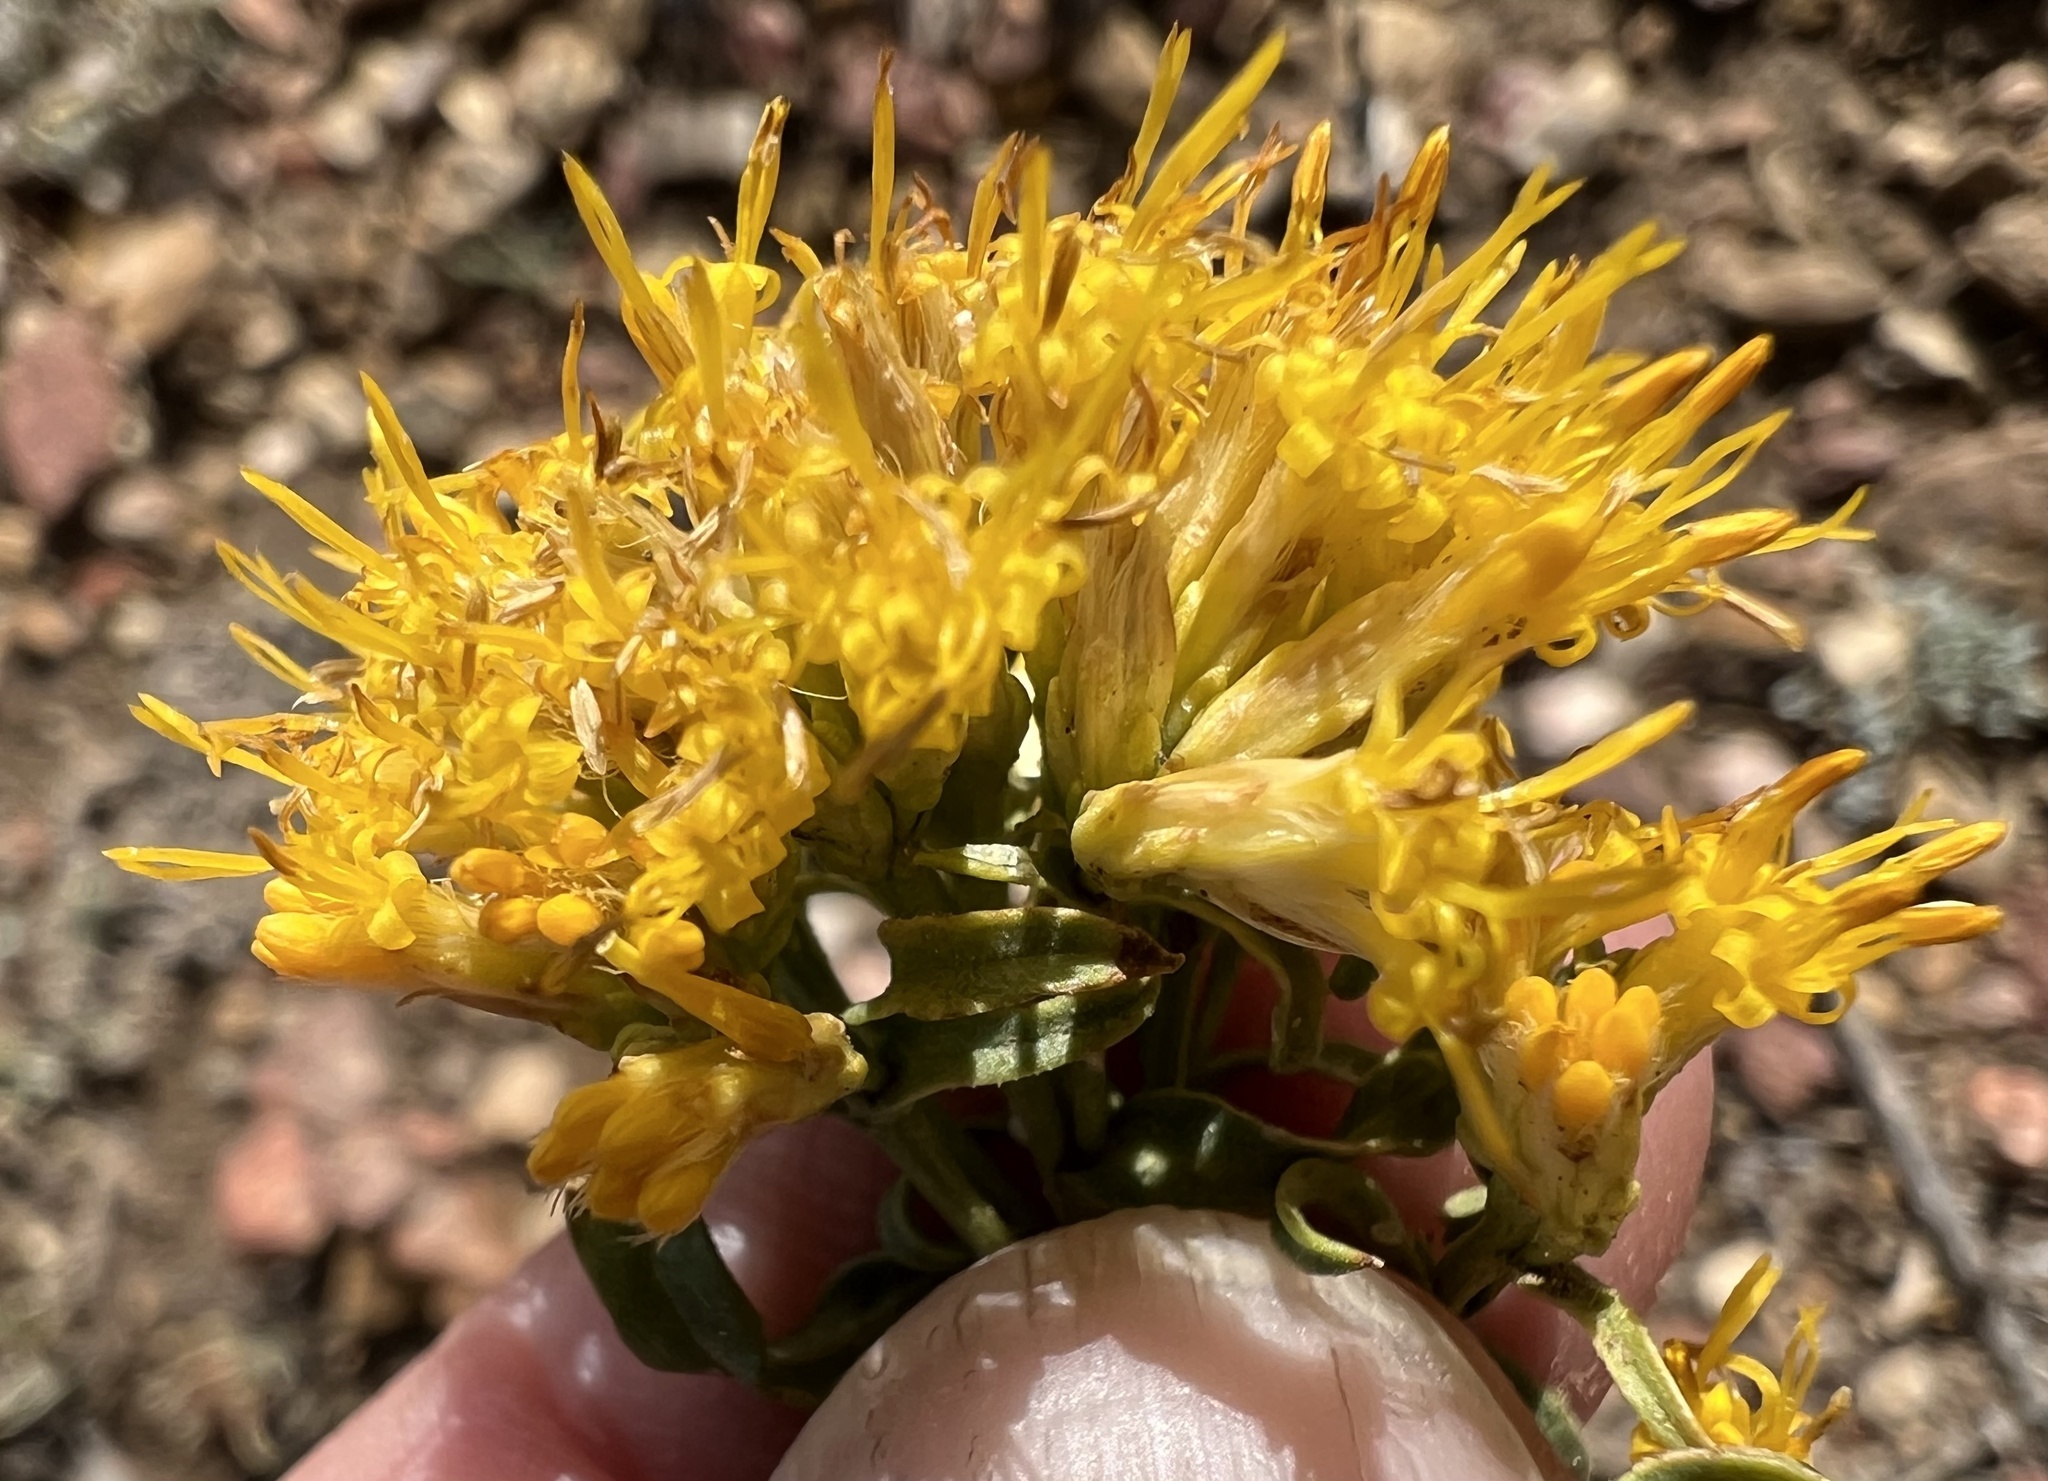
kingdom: Plantae
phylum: Tracheophyta
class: Magnoliopsida
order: Asterales
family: Asteraceae
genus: Chrysothamnus
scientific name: Chrysothamnus viscidiflorus
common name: Yellow rabbitbrush
